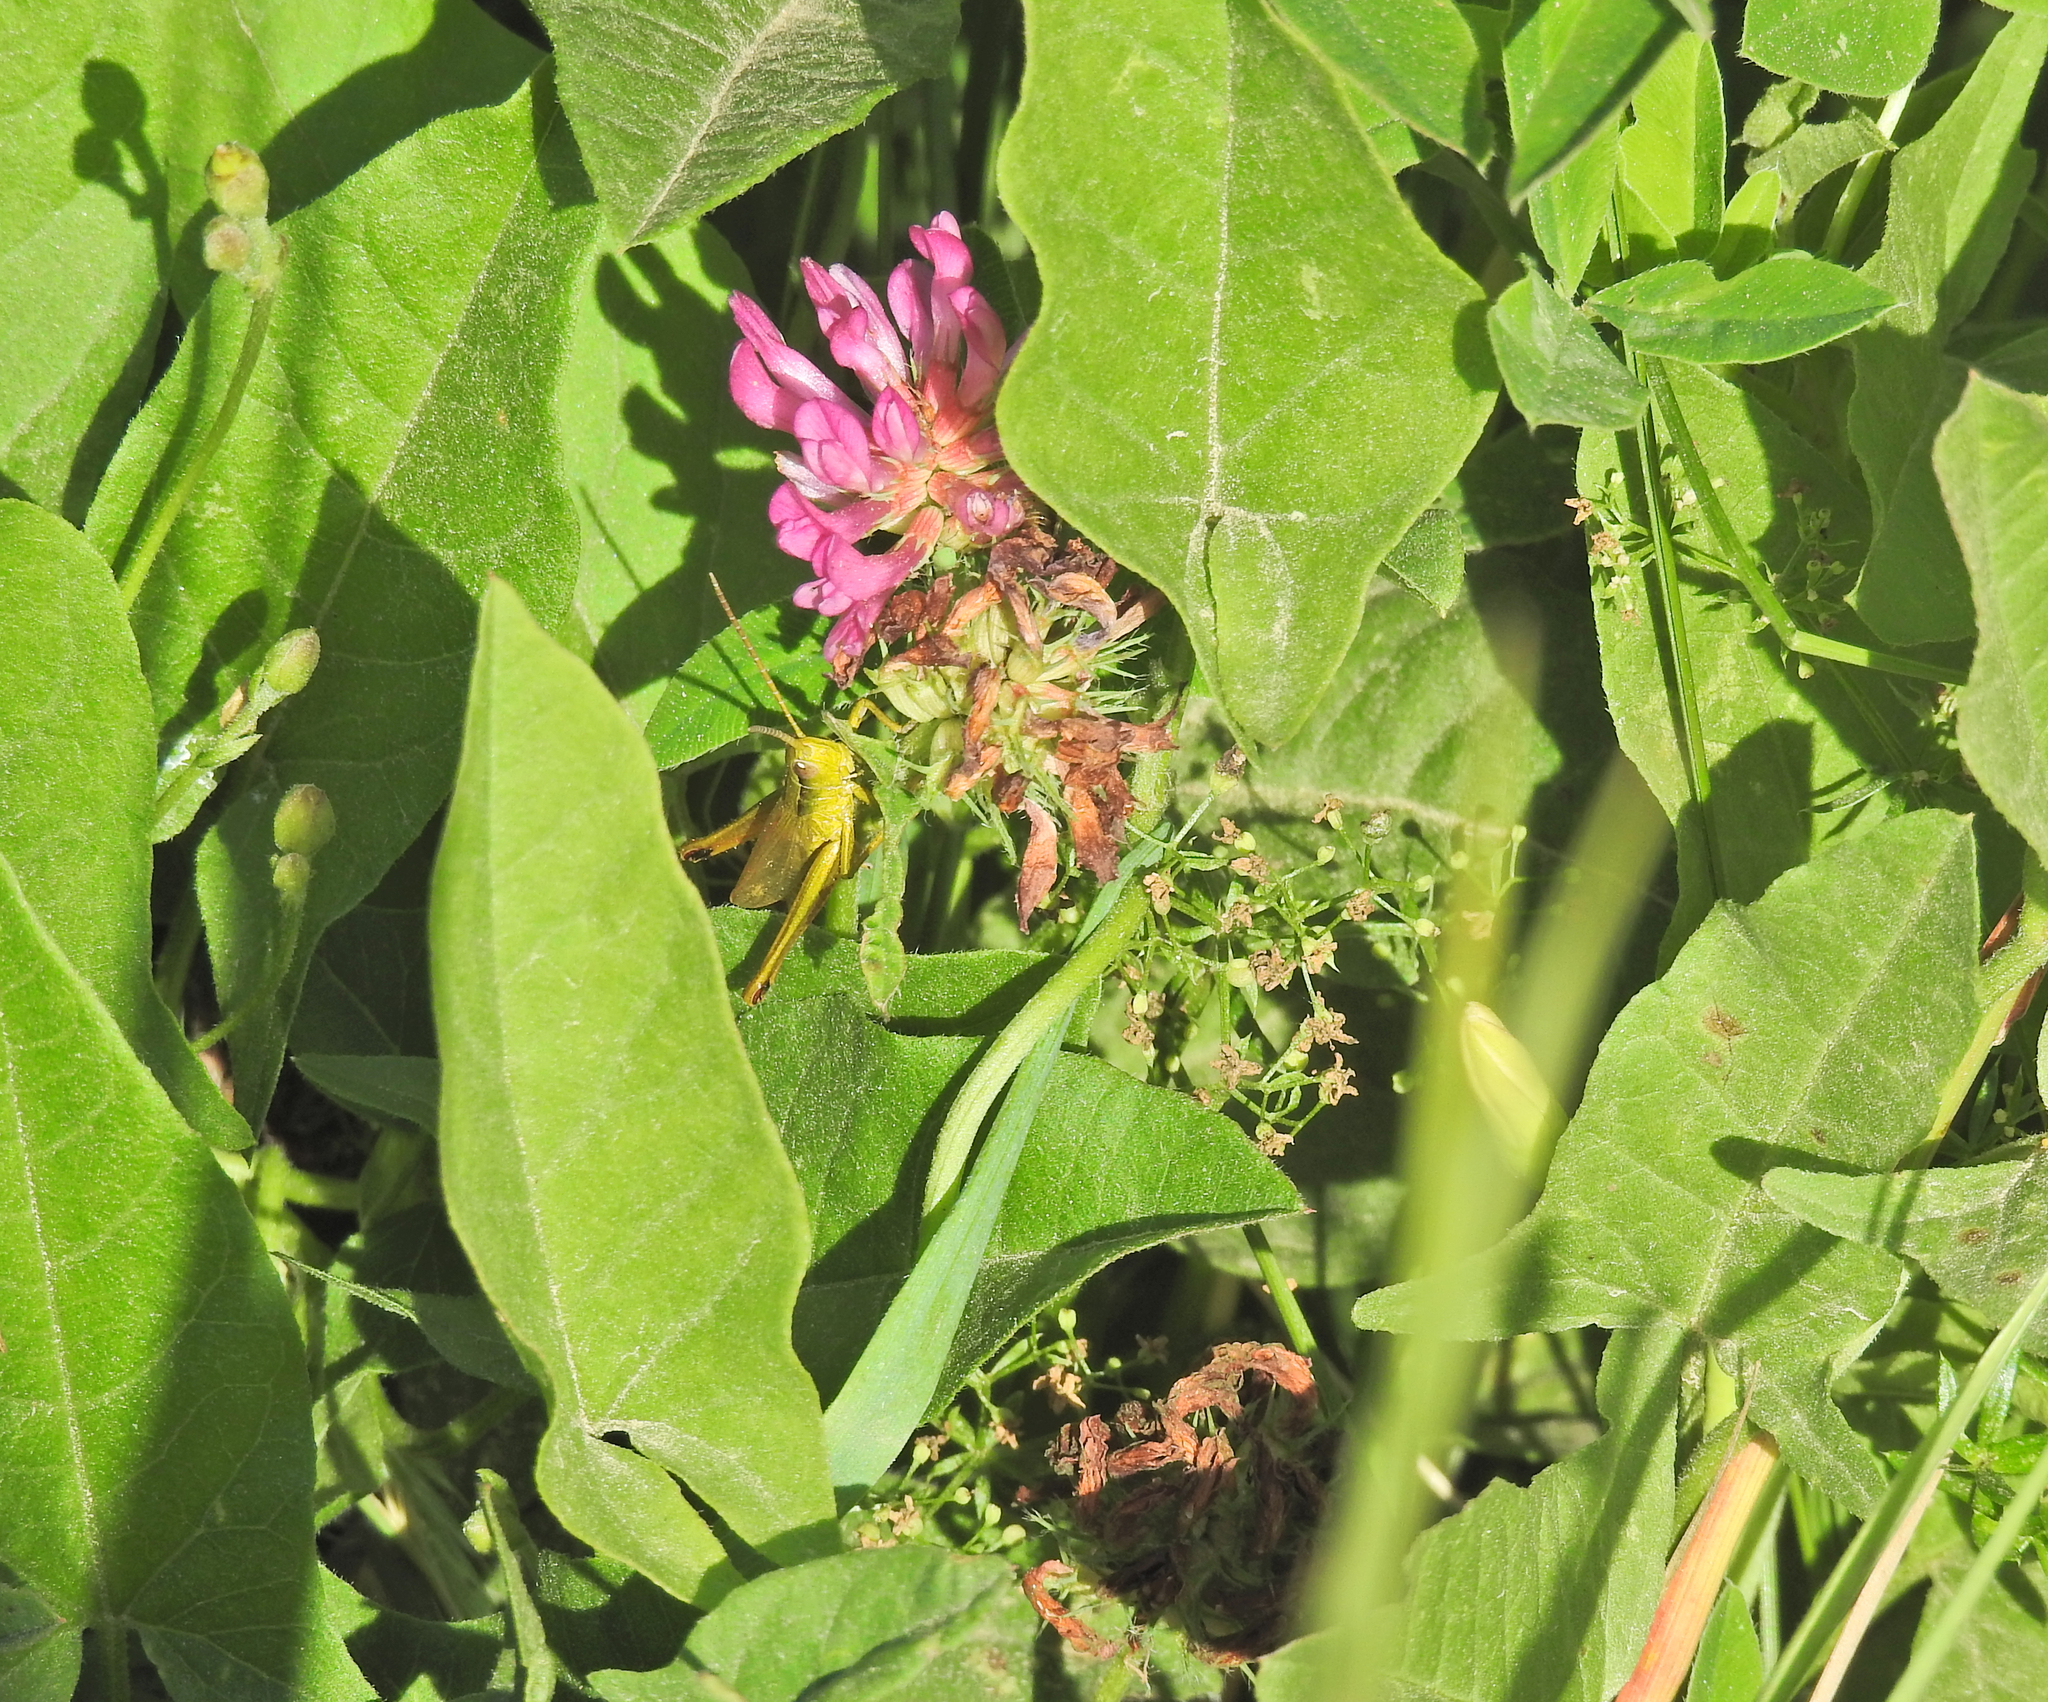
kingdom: Animalia
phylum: Arthropoda
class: Insecta
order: Orthoptera
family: Acrididae
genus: Chrysochraon
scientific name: Chrysochraon dispar
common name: Large gold grasshopper
